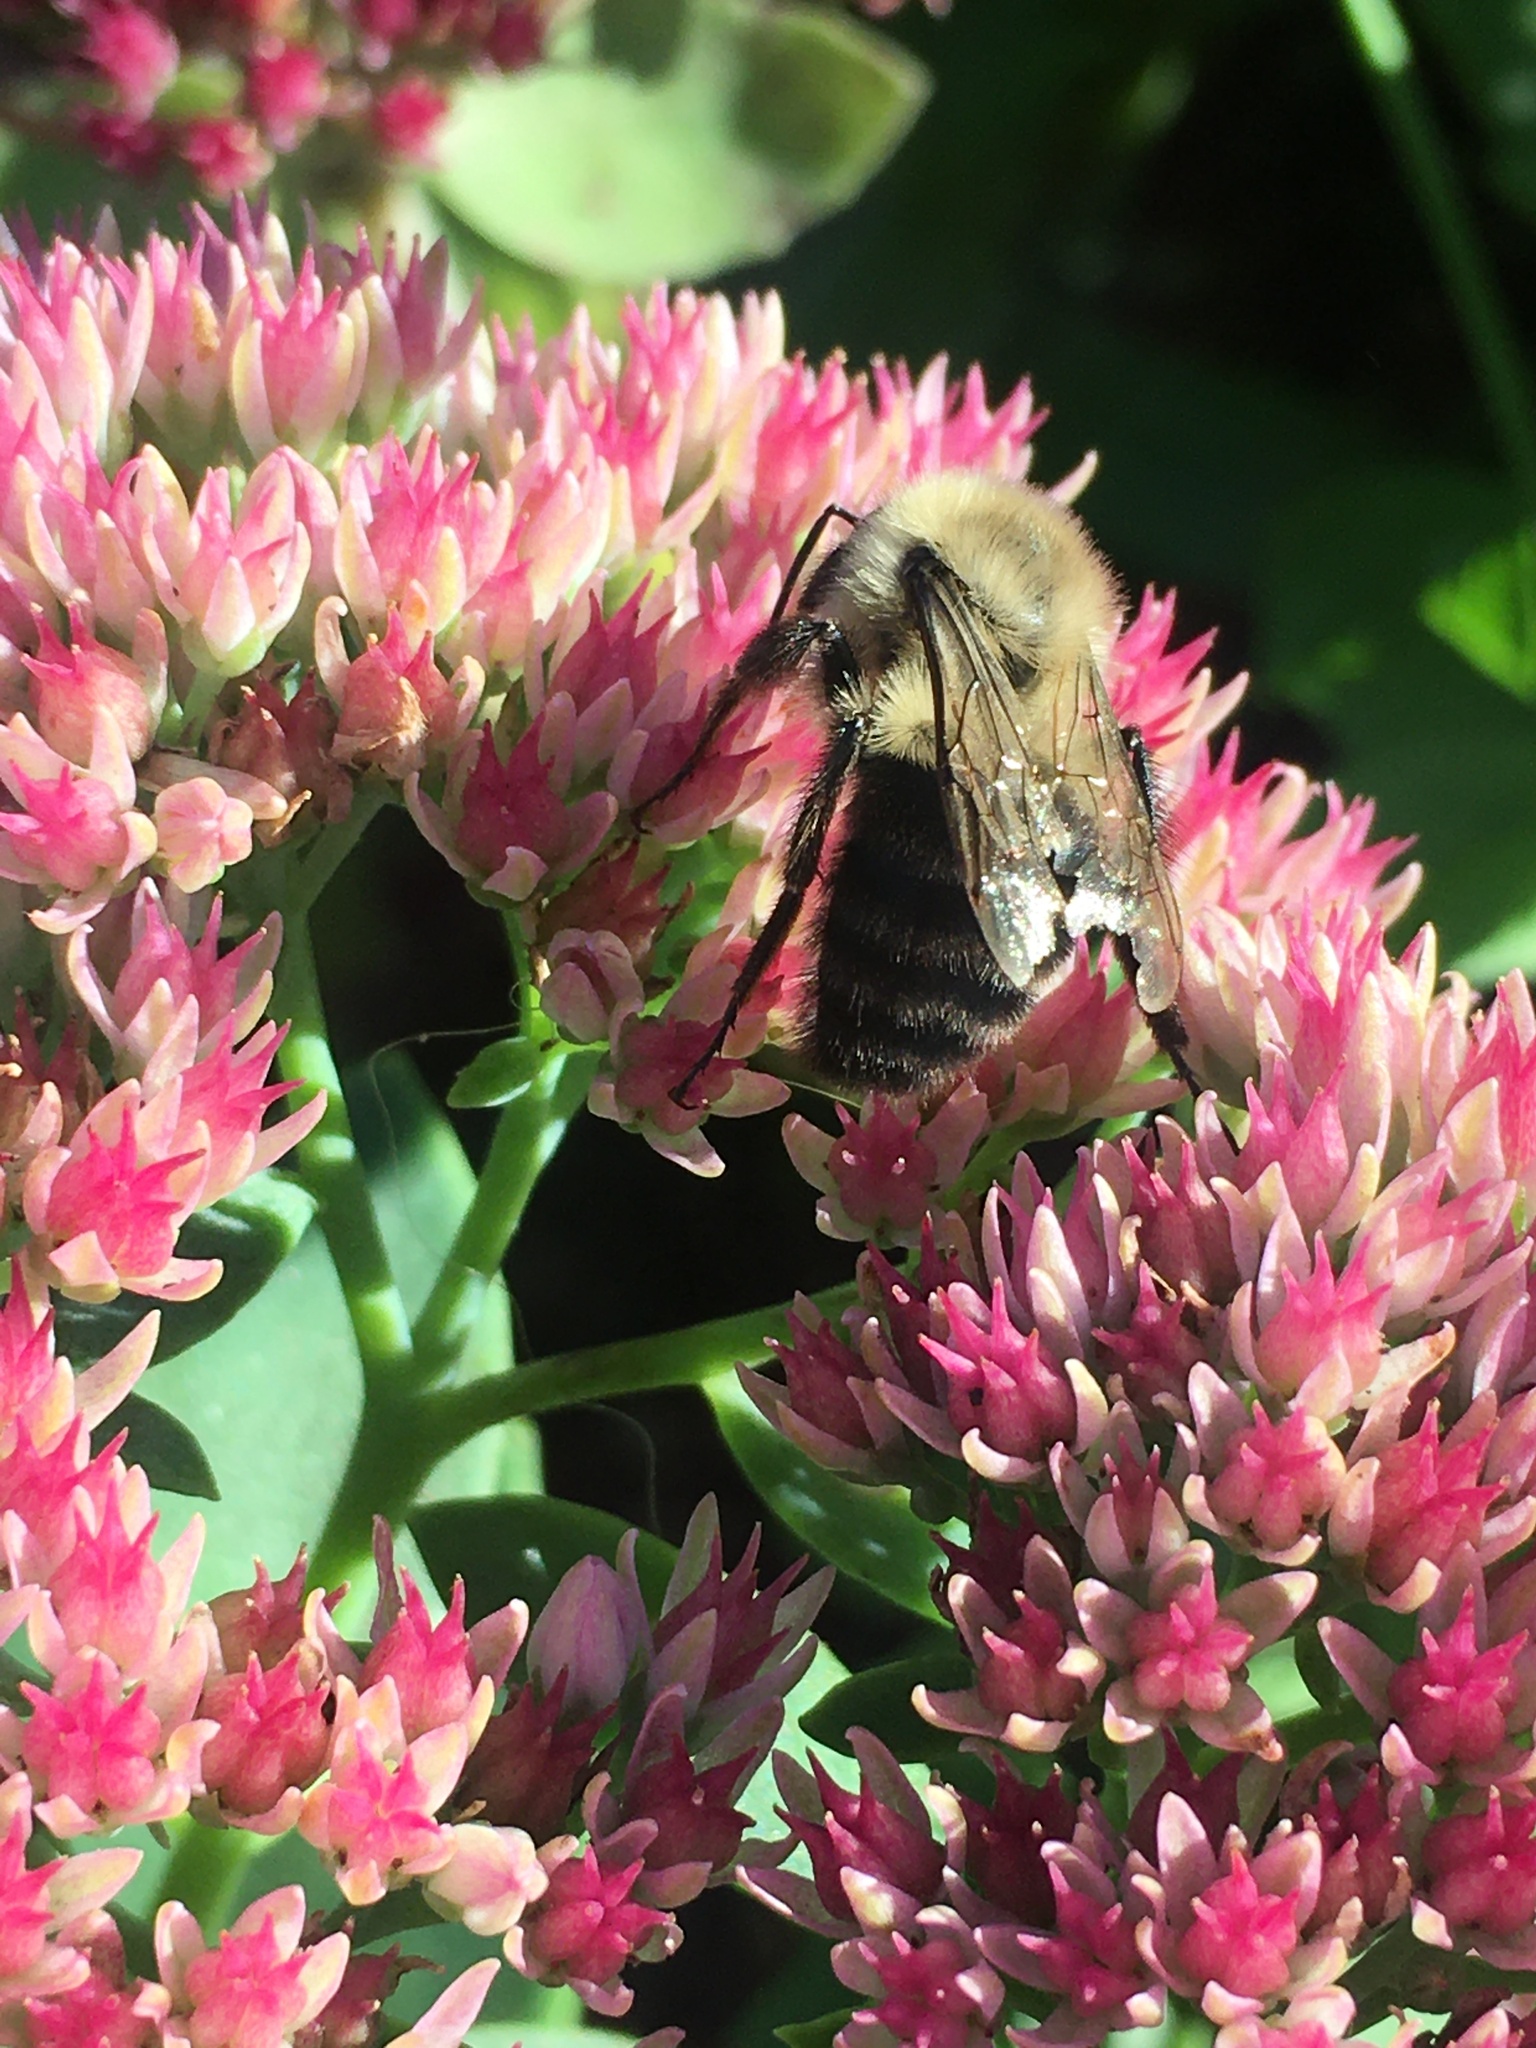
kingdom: Animalia
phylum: Arthropoda
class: Insecta
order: Hymenoptera
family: Apidae
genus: Bombus
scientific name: Bombus impatiens
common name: Common eastern bumble bee
